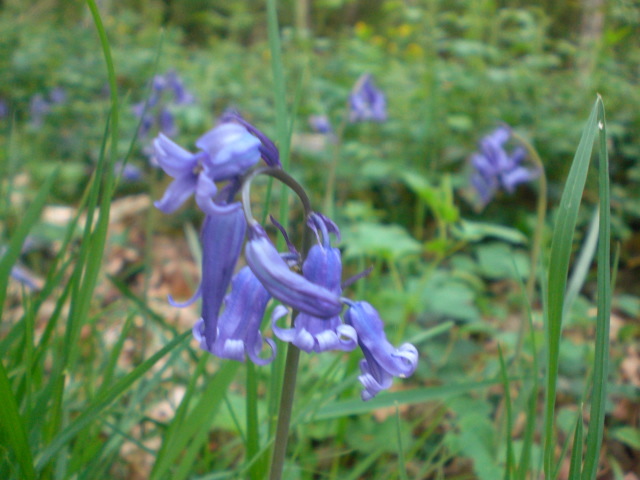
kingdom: Plantae
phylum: Tracheophyta
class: Liliopsida
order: Asparagales
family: Asparagaceae
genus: Hyacinthoides
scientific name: Hyacinthoides non-scripta
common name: Bluebell
